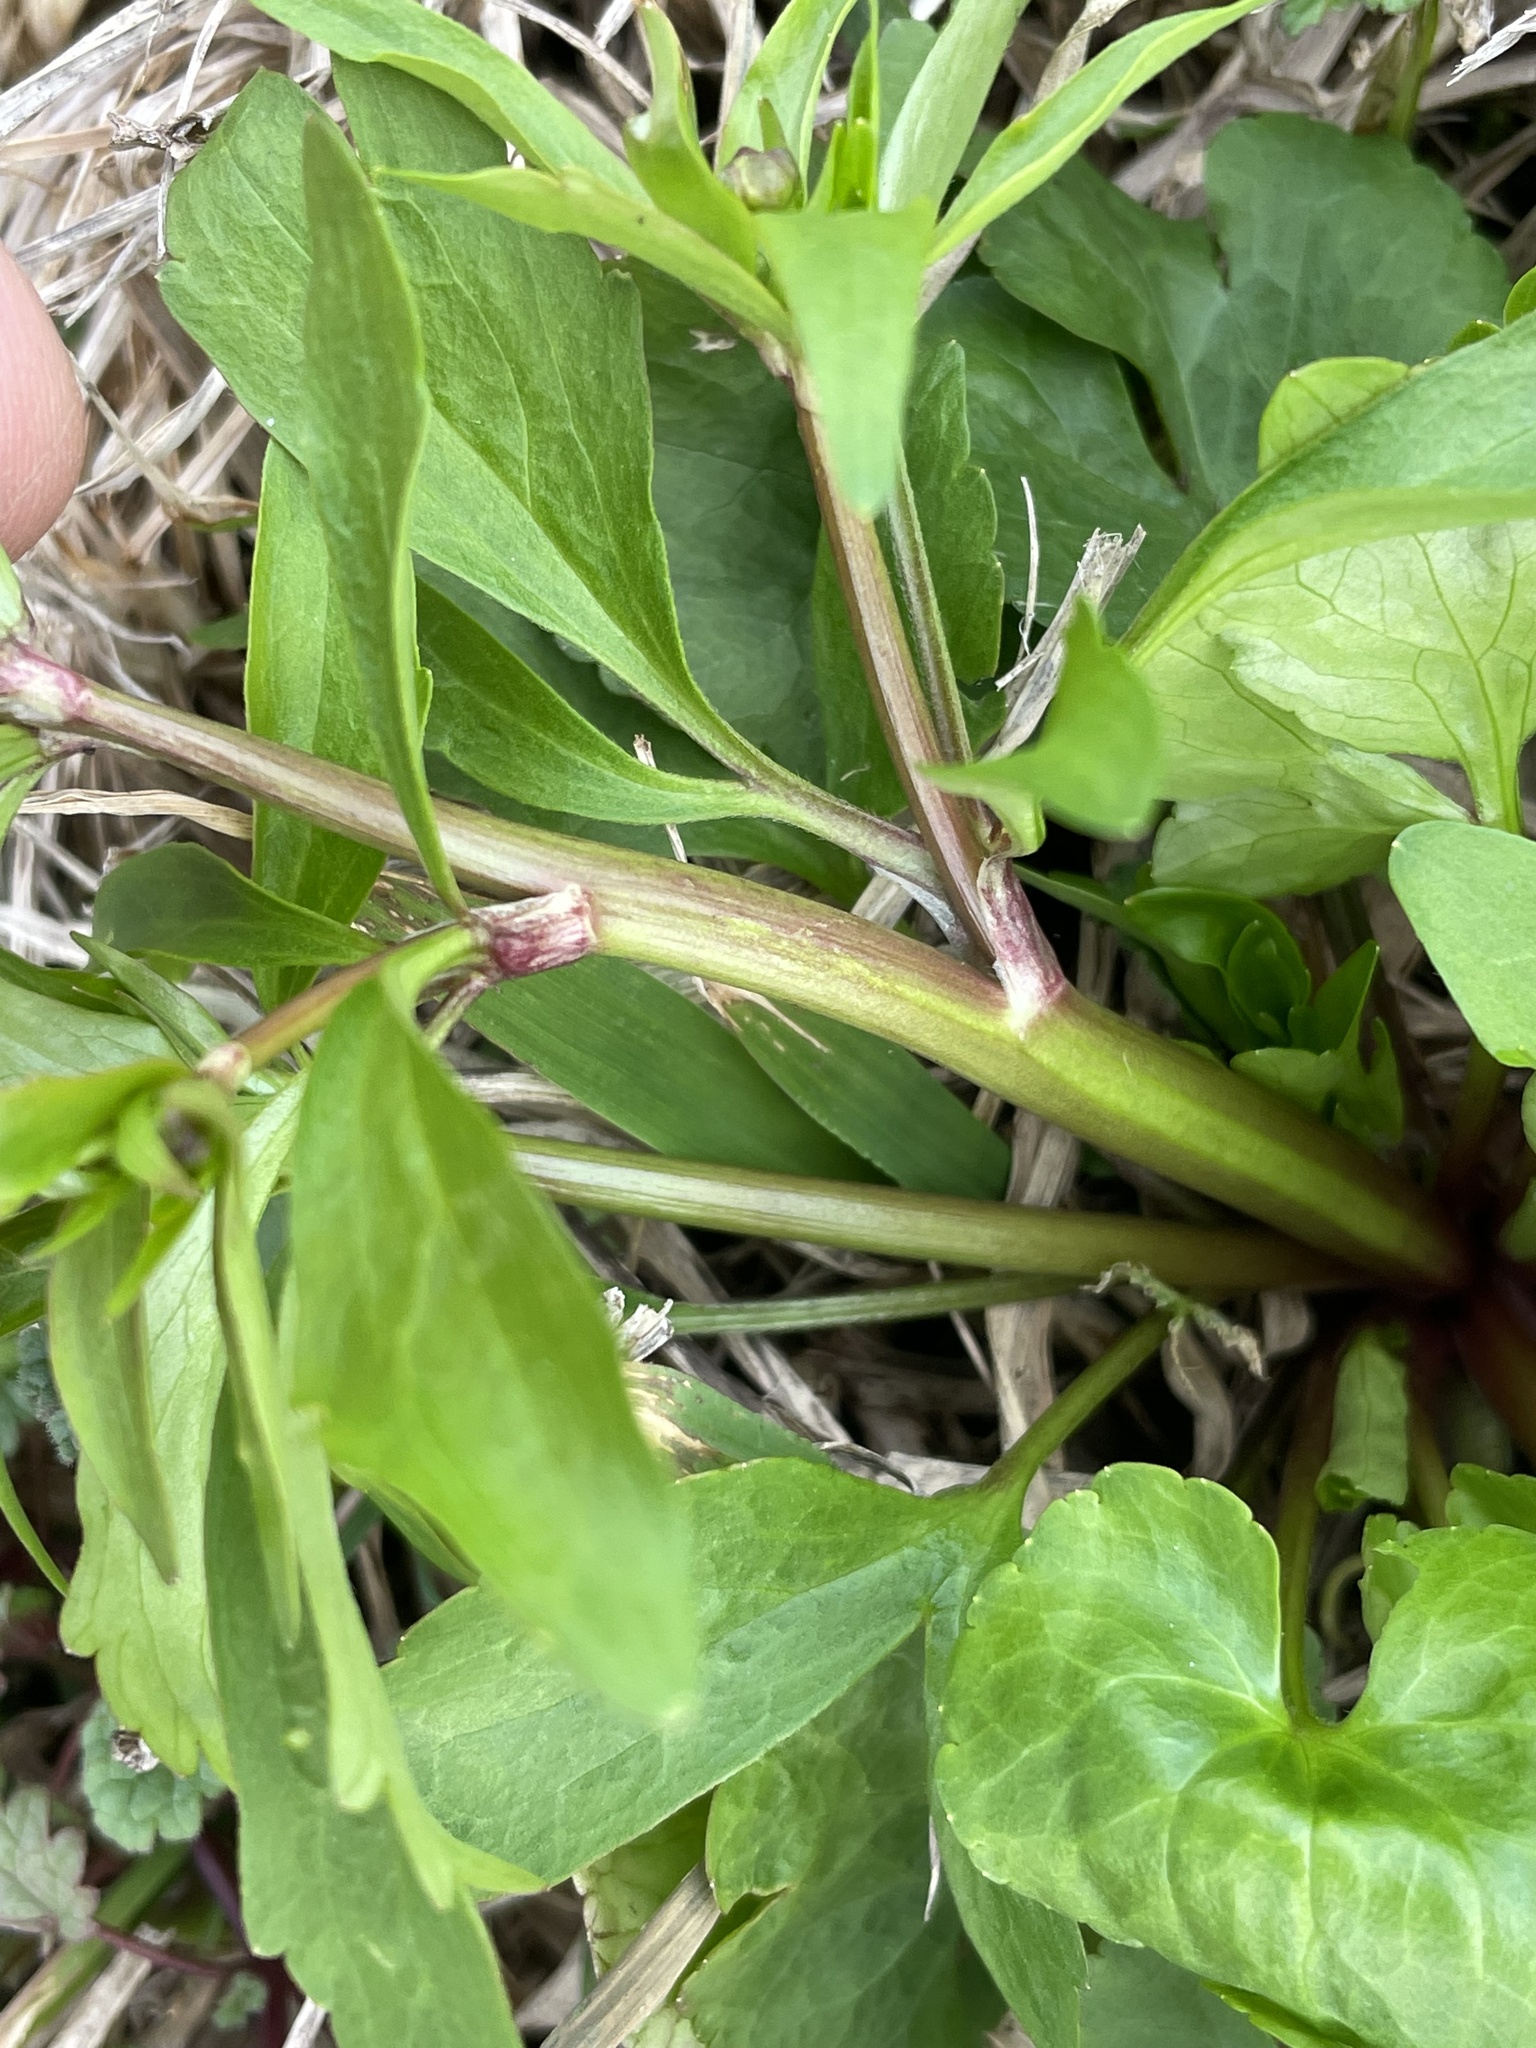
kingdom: Plantae
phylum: Tracheophyta
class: Magnoliopsida
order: Ranunculales
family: Ranunculaceae
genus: Ranunculus
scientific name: Ranunculus abortivus
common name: Early wood buttercup
